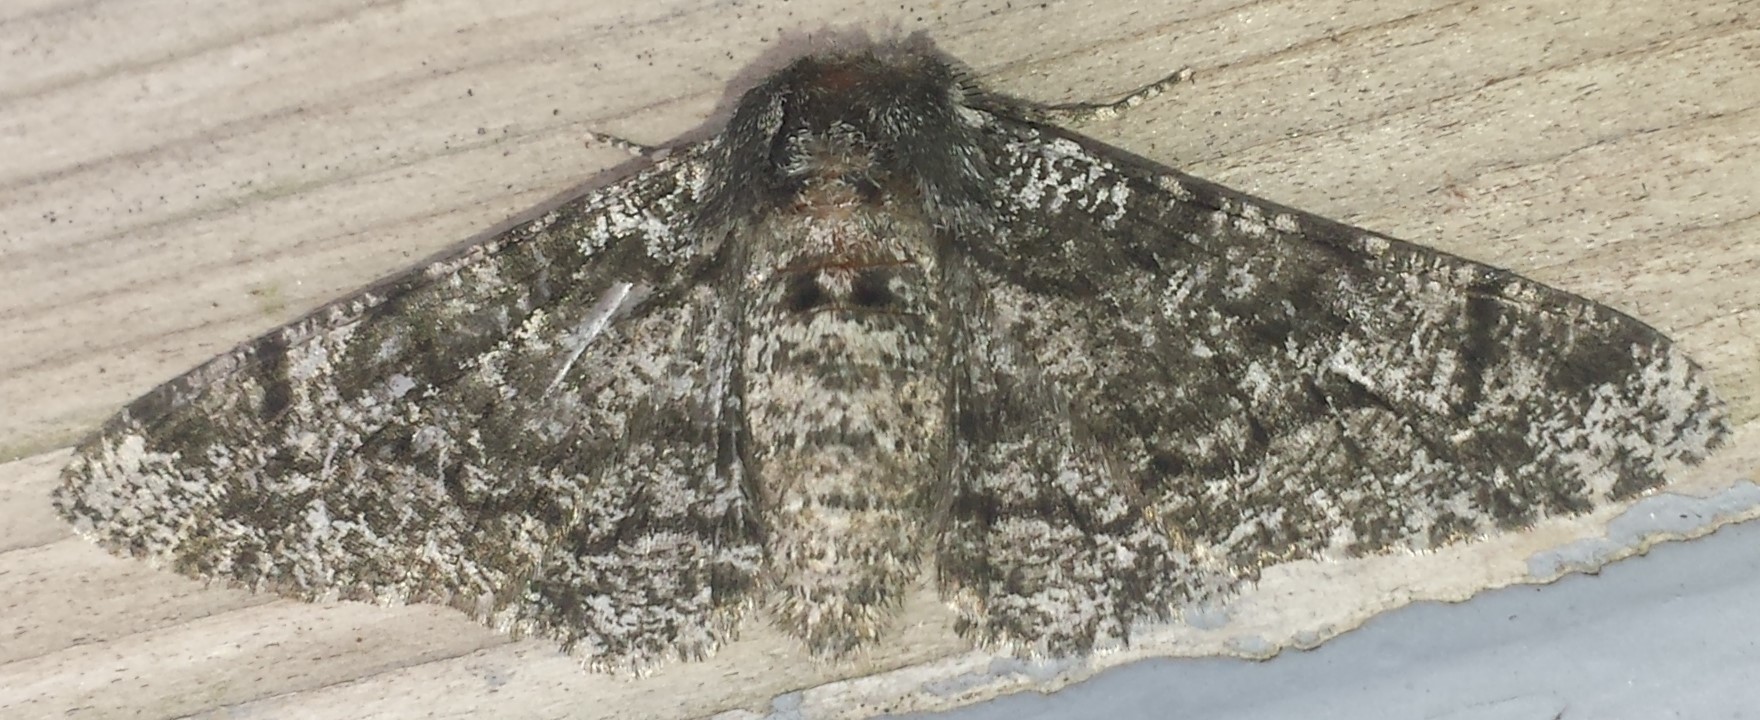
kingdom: Animalia
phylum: Arthropoda
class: Insecta
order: Lepidoptera
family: Geometridae
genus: Biston
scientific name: Biston betularia
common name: Peppered moth
